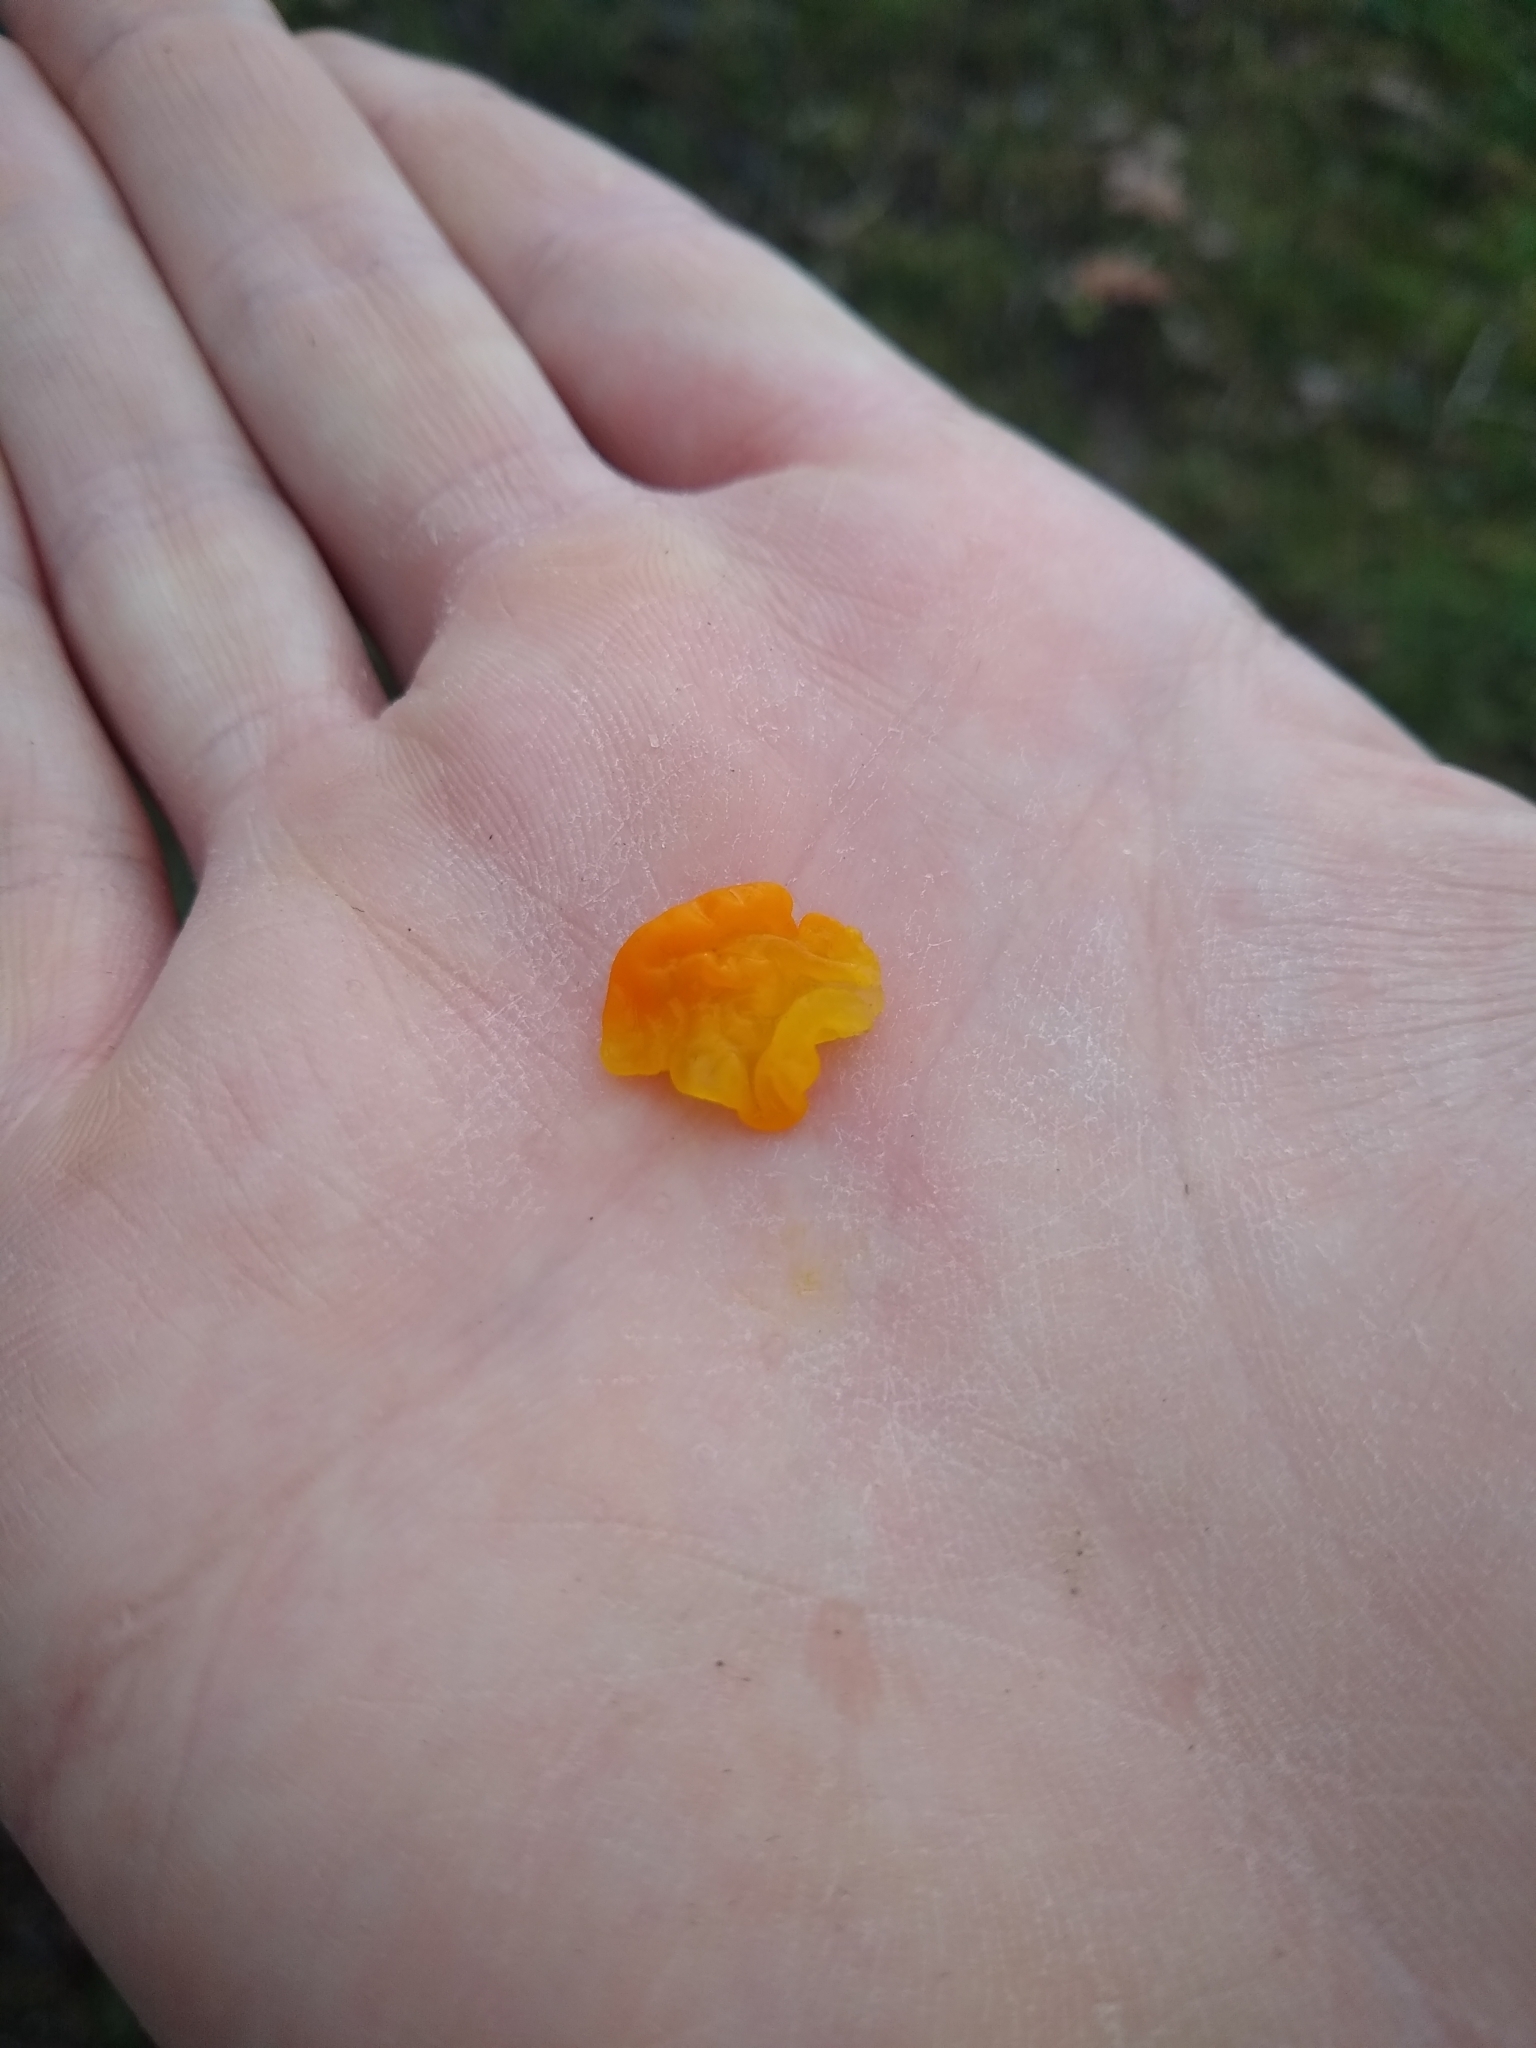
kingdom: Fungi
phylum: Basidiomycota
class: Tremellomycetes
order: Tremellales
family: Tremellaceae
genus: Tremella
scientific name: Tremella mesenterica
